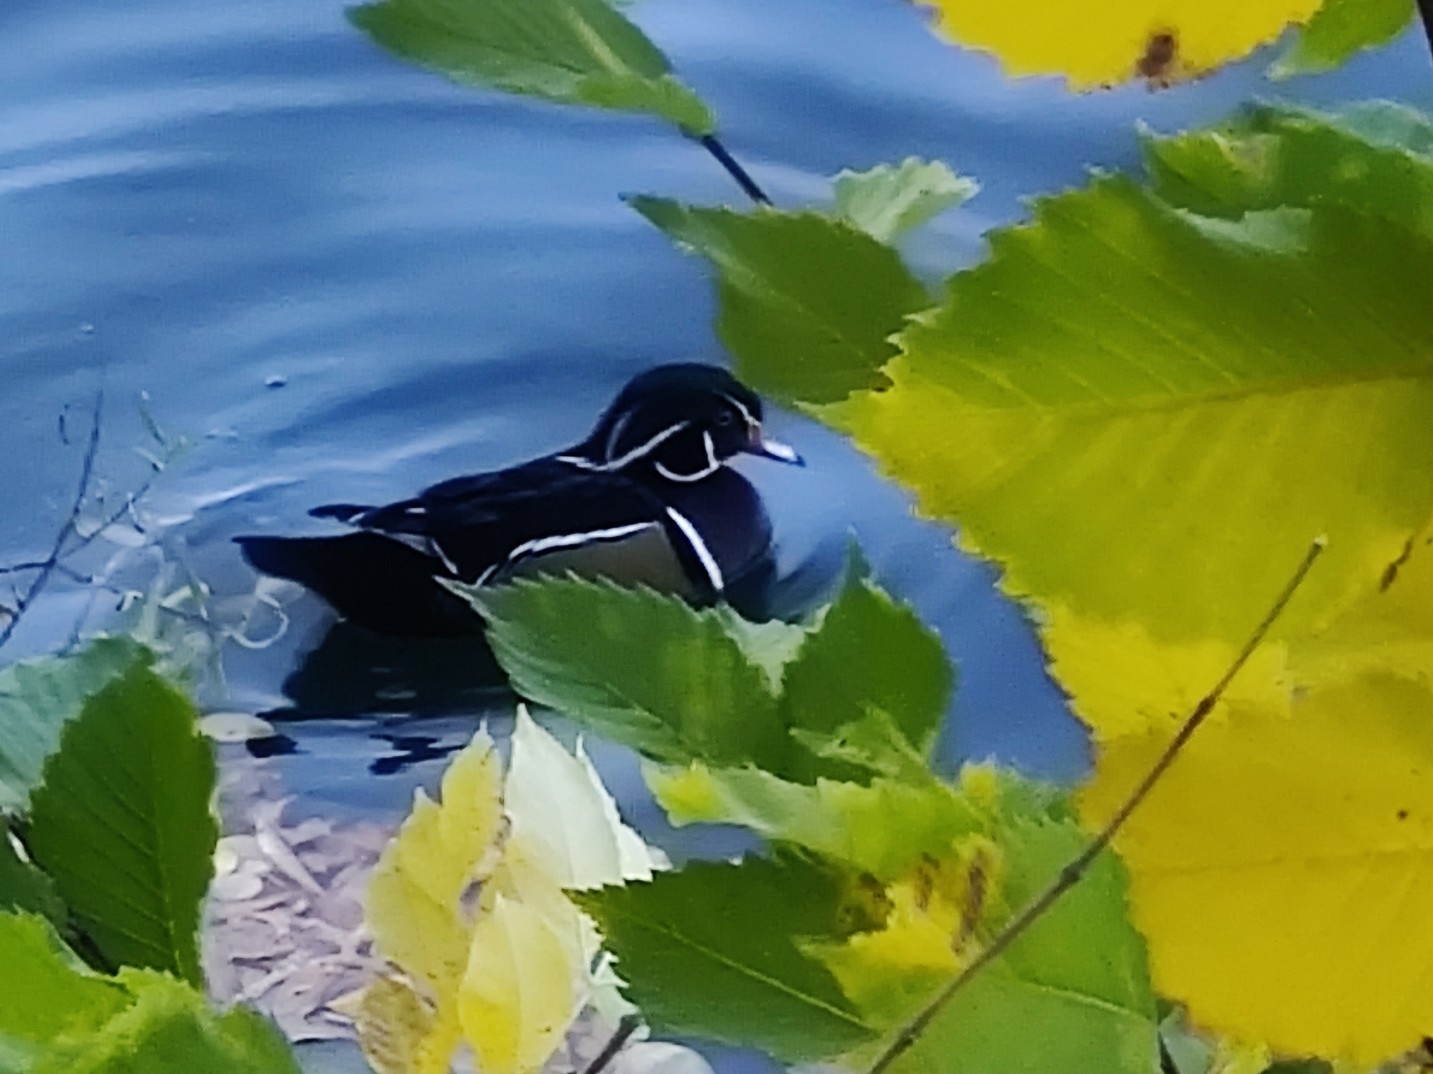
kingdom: Animalia
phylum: Chordata
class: Aves
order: Anseriformes
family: Anatidae
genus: Aix
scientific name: Aix sponsa
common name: Wood duck
